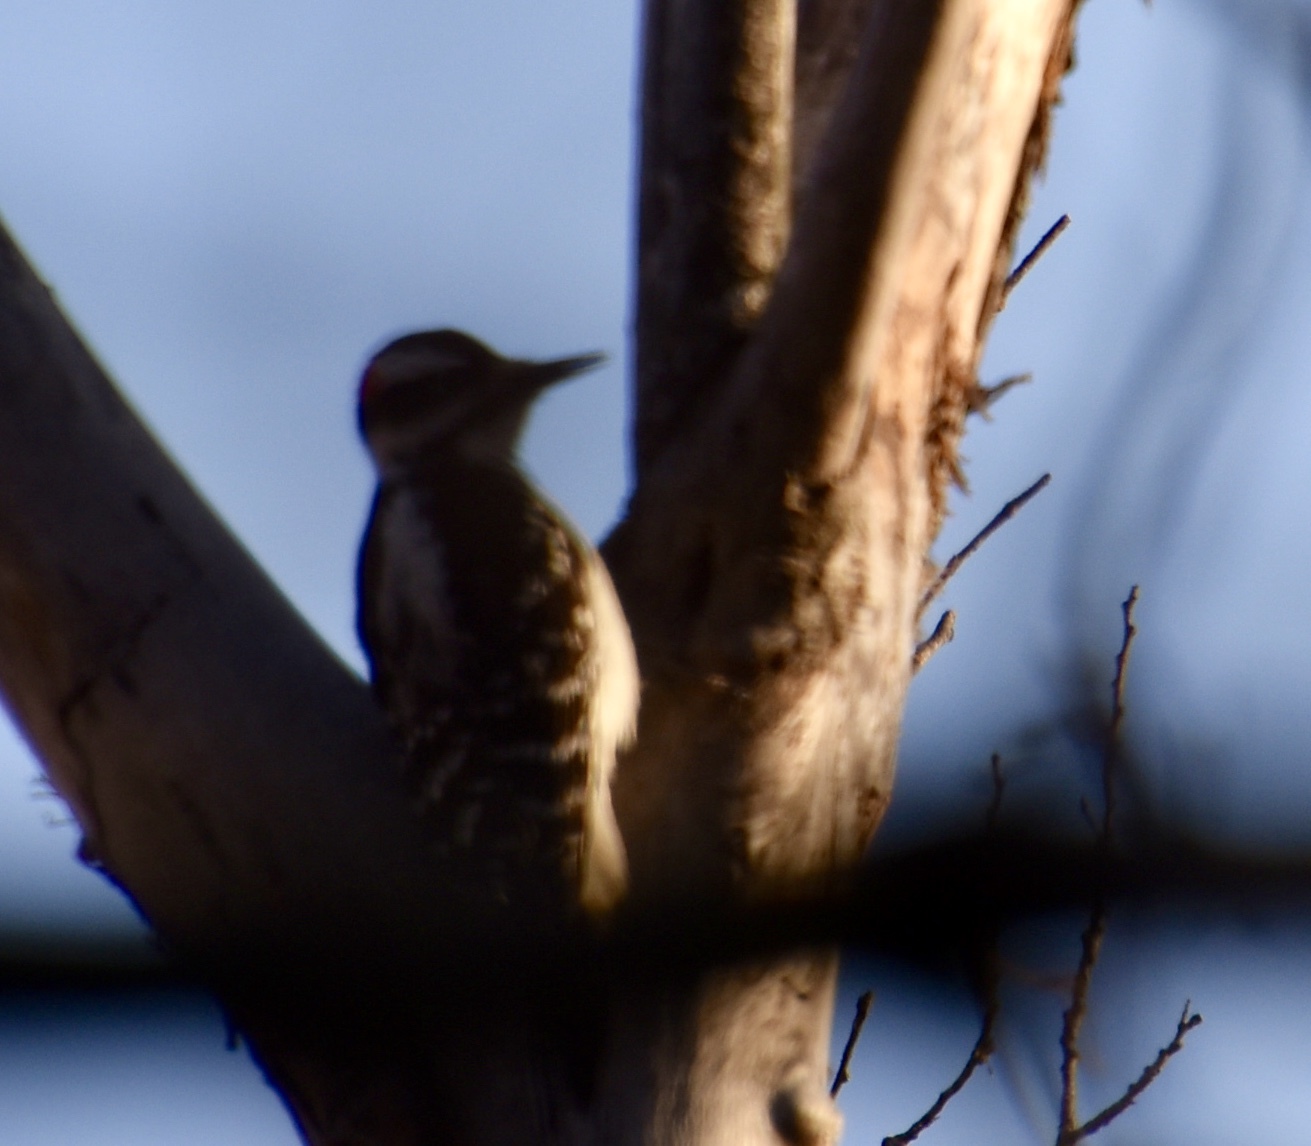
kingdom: Animalia
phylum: Chordata
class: Aves
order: Piciformes
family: Picidae
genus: Leuconotopicus
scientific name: Leuconotopicus villosus
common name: Hairy woodpecker
